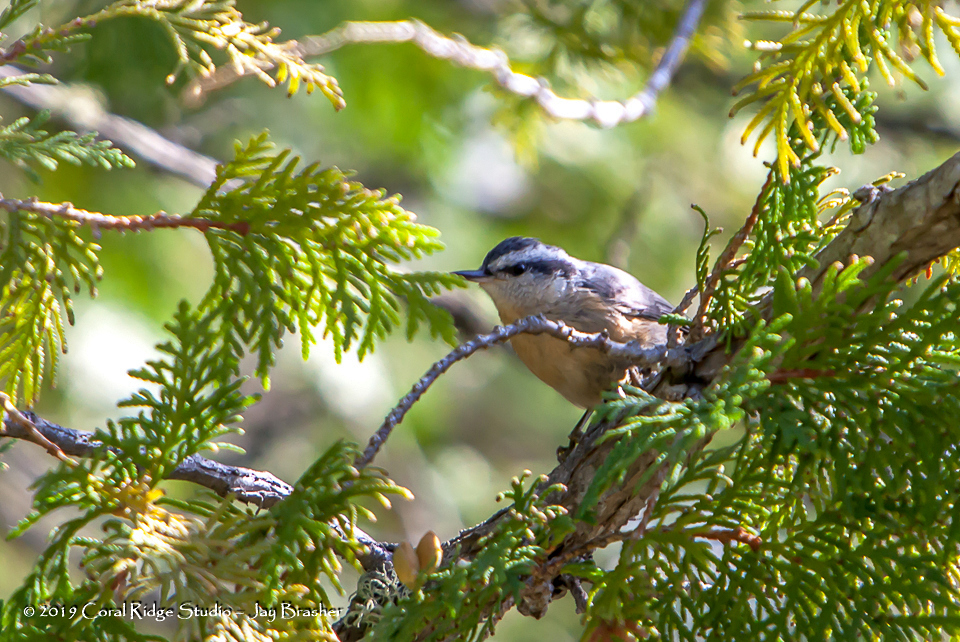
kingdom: Animalia
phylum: Chordata
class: Aves
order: Passeriformes
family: Sittidae
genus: Sitta
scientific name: Sitta canadensis
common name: Red-breasted nuthatch
